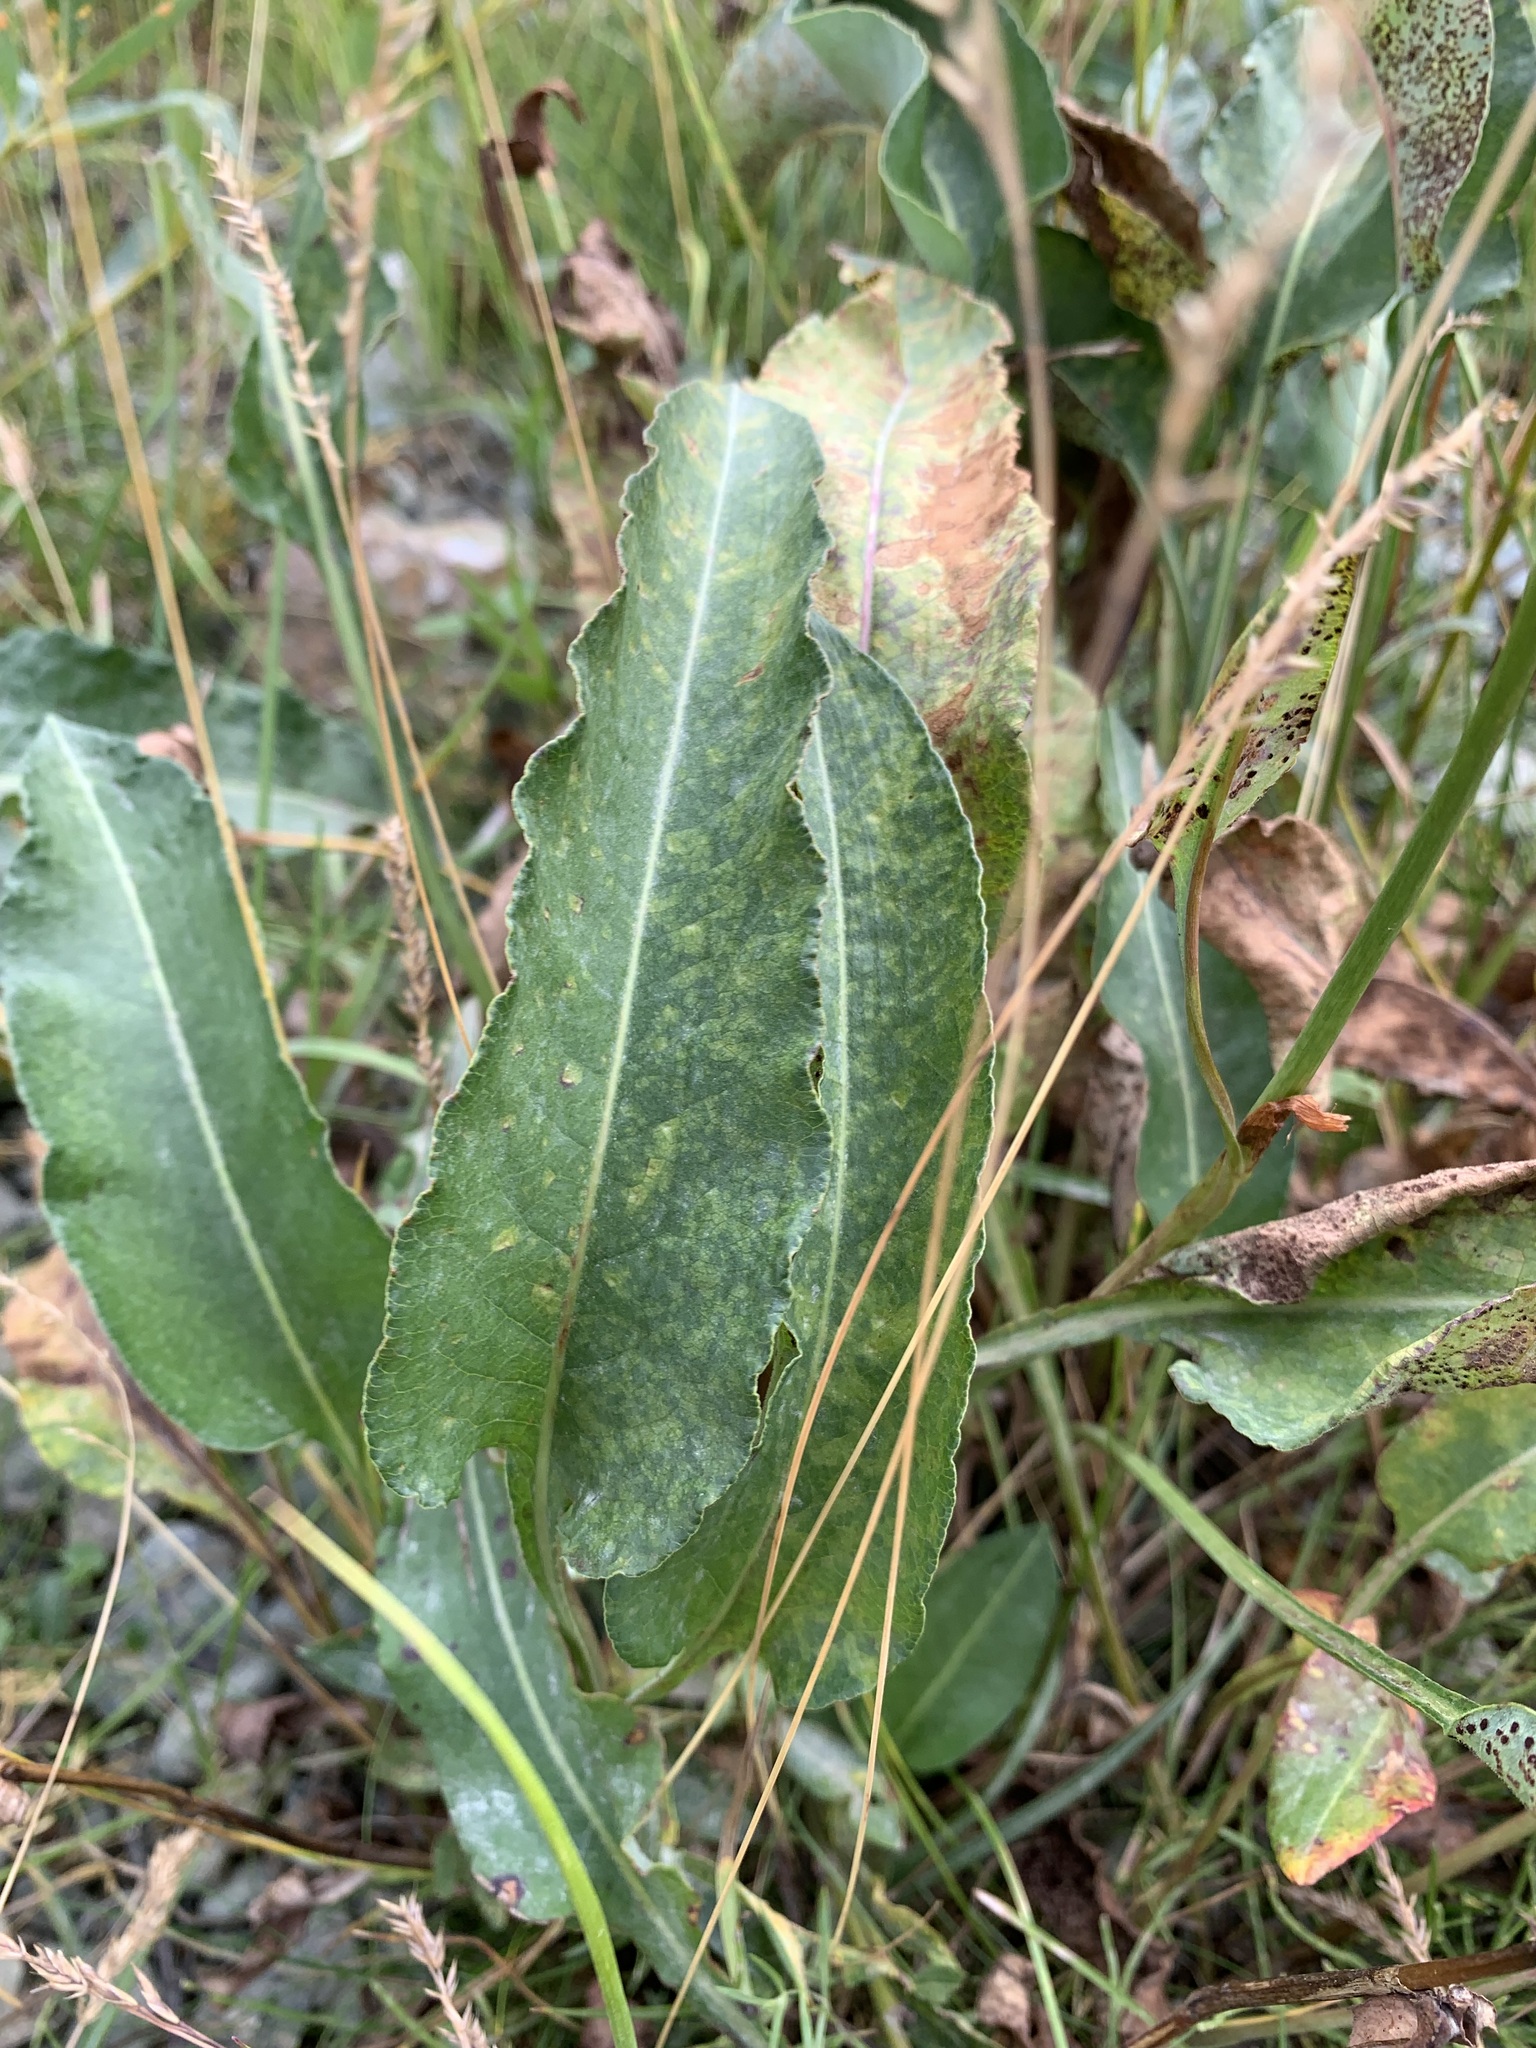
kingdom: Plantae
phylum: Tracheophyta
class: Magnoliopsida
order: Caryophyllales
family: Polygonaceae
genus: Bistorta
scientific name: Bistorta officinalis
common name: Common bistort
